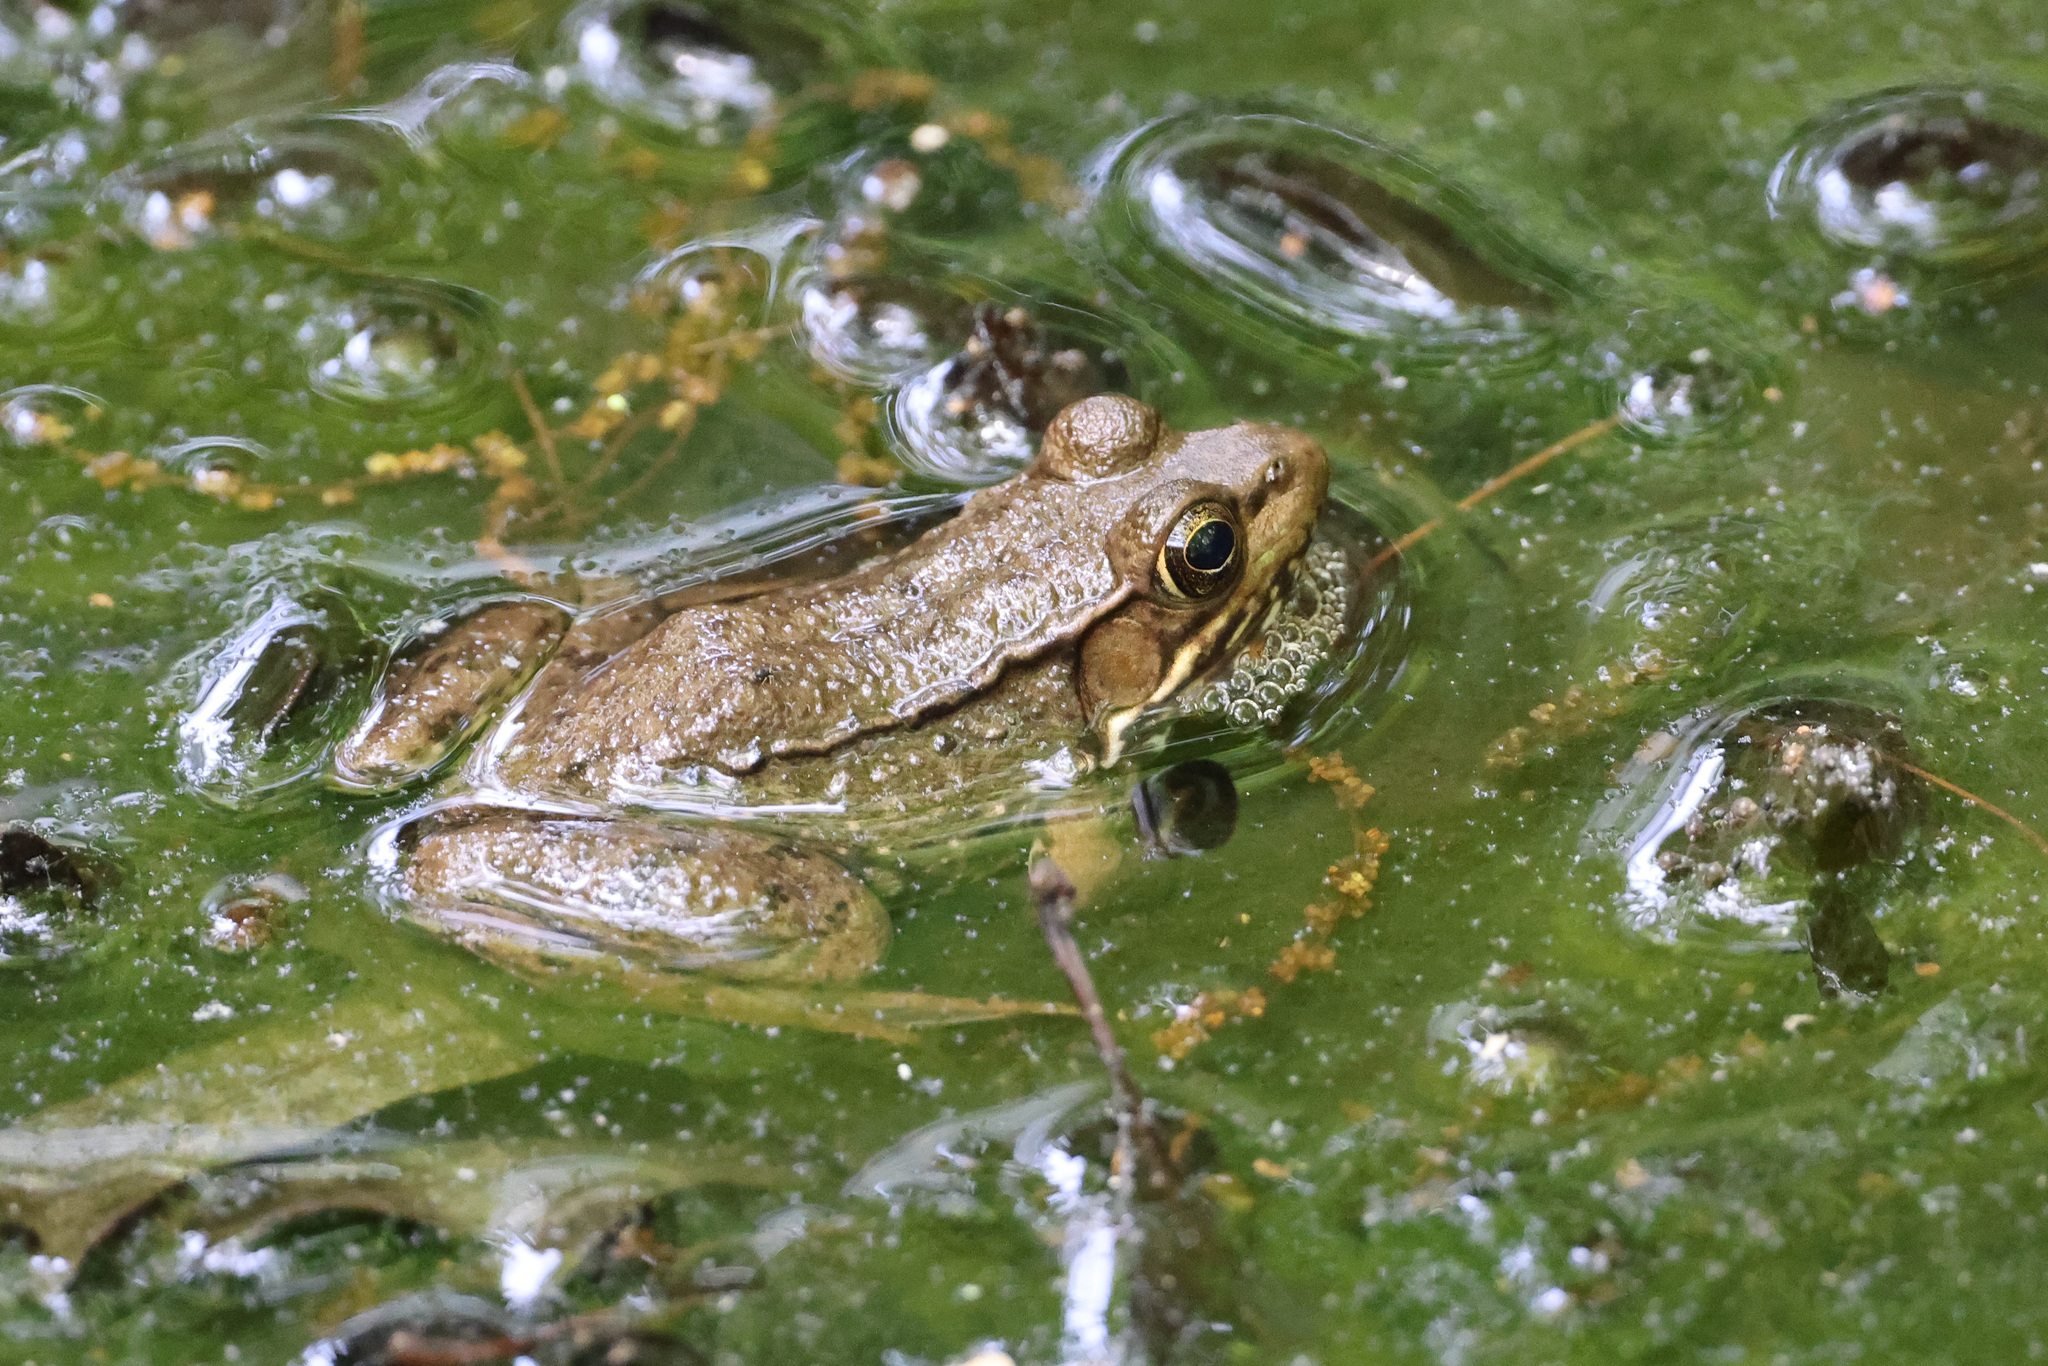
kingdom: Animalia
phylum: Chordata
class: Amphibia
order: Anura
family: Ranidae
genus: Lithobates
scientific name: Lithobates clamitans
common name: Green frog
